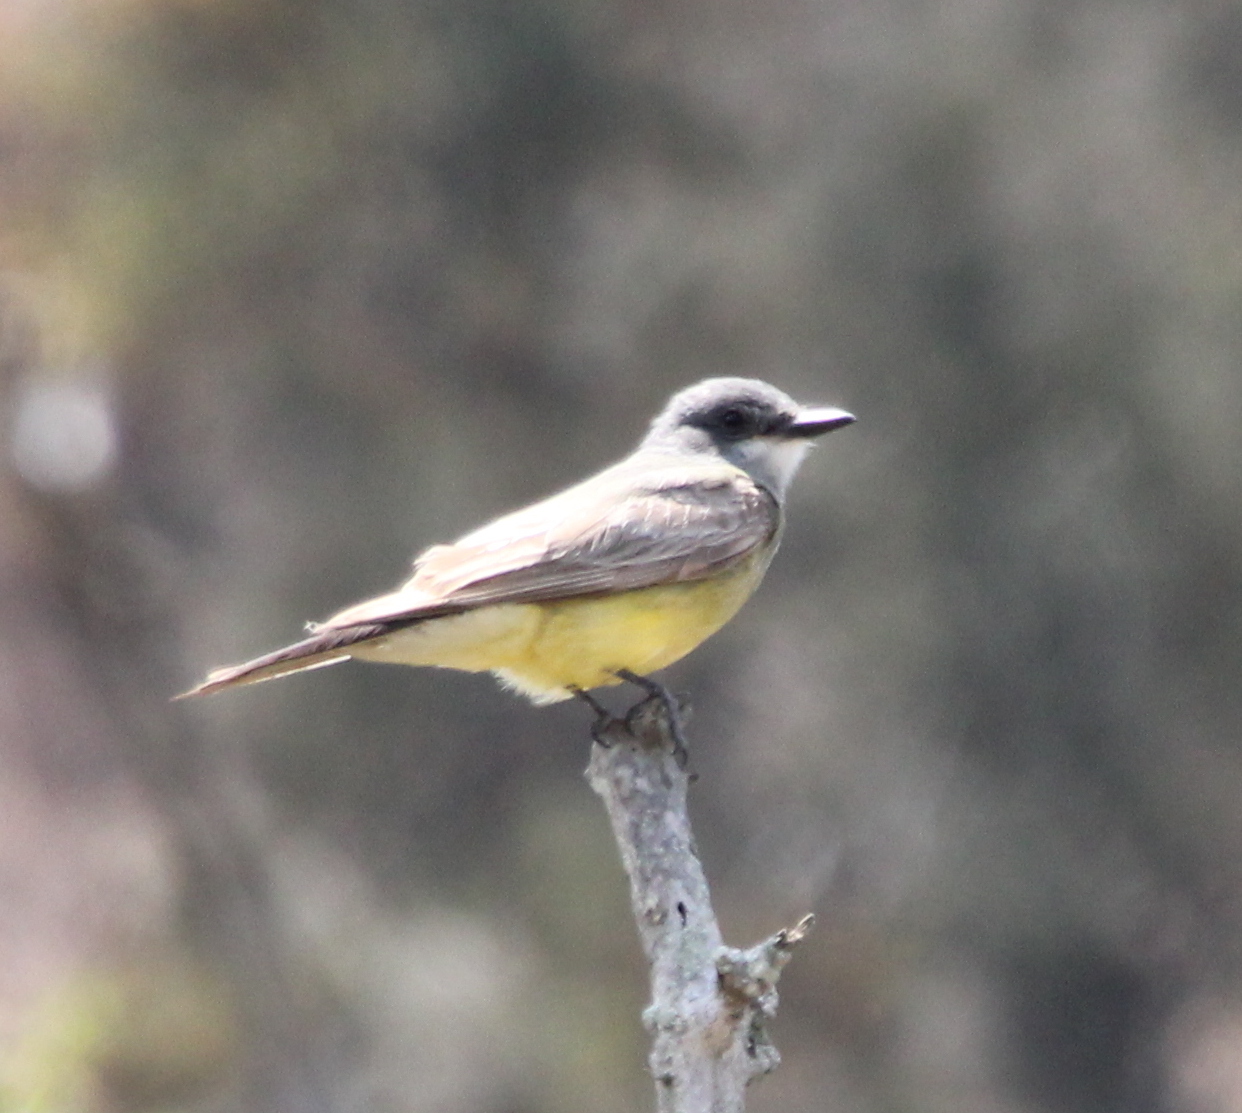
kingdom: Animalia
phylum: Chordata
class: Aves
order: Passeriformes
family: Tyrannidae
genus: Tyrannus
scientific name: Tyrannus vociferans
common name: Cassin's kingbird
